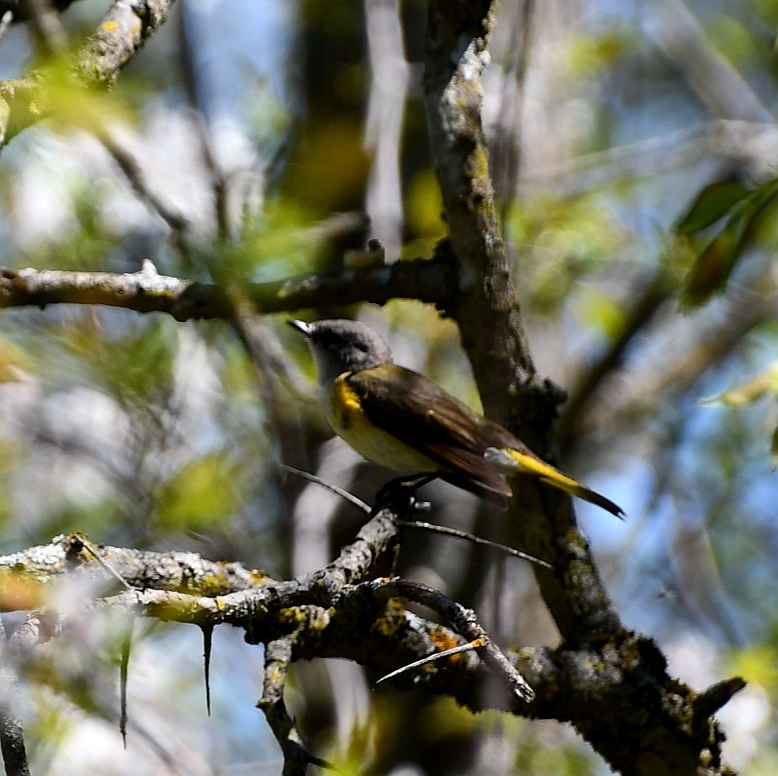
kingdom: Animalia
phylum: Chordata
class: Aves
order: Passeriformes
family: Parulidae
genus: Setophaga
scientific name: Setophaga ruticilla
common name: American redstart
